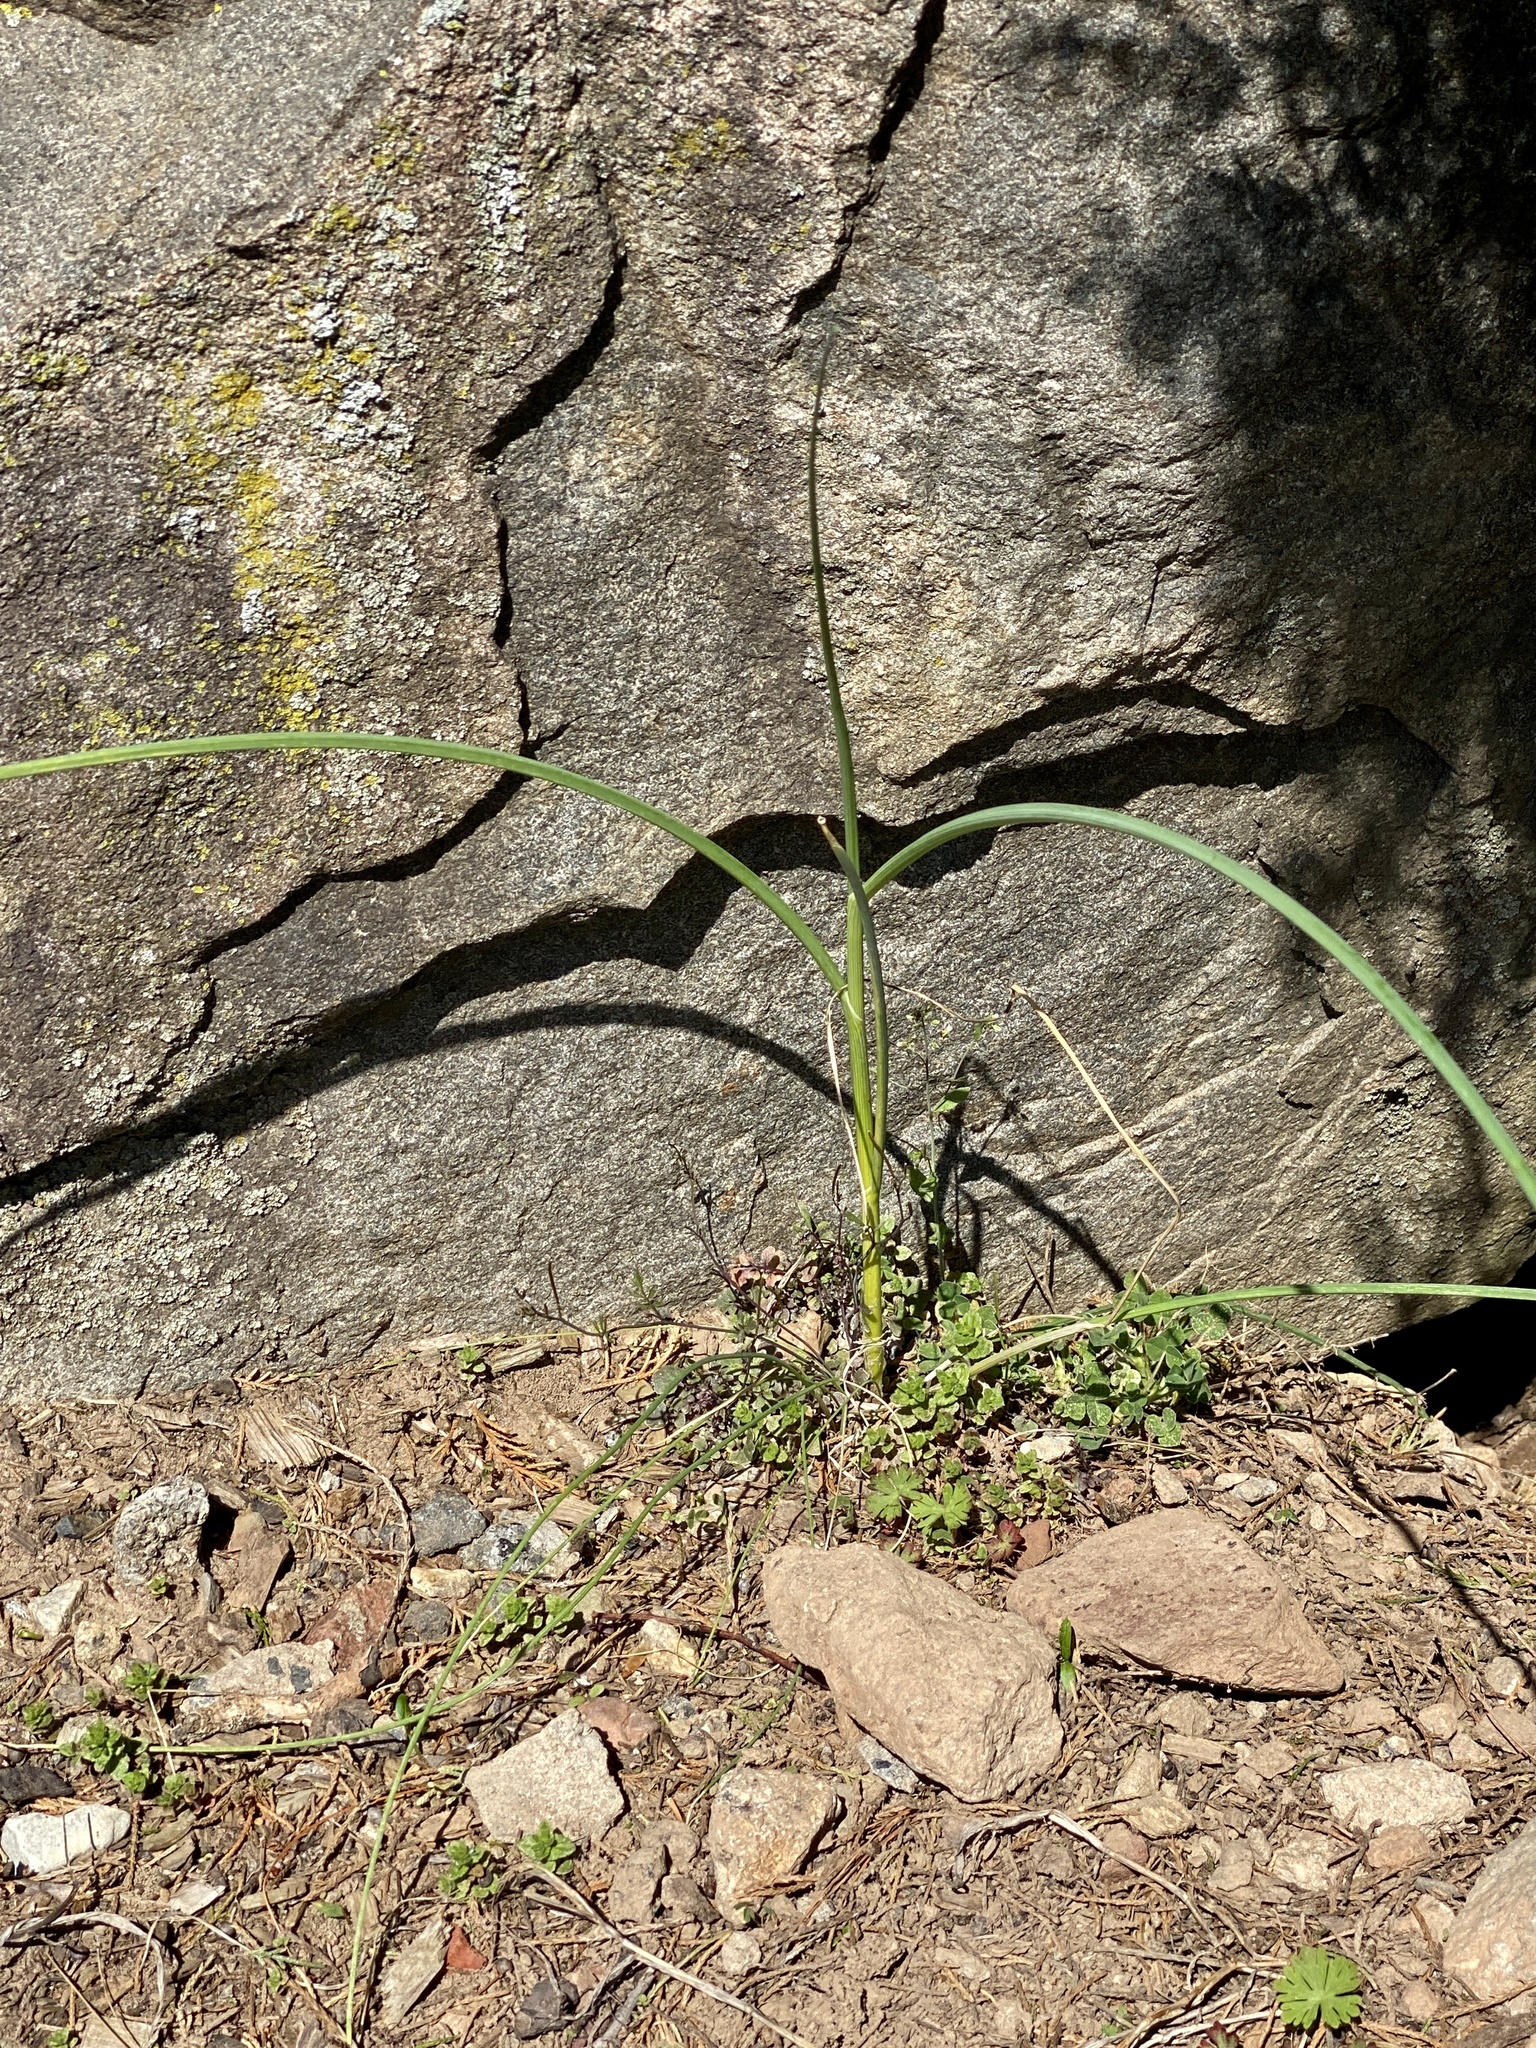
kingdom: Plantae
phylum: Tracheophyta
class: Liliopsida
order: Asparagales
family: Amaryllidaceae
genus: Allium
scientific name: Allium vineale
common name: Crow garlic
